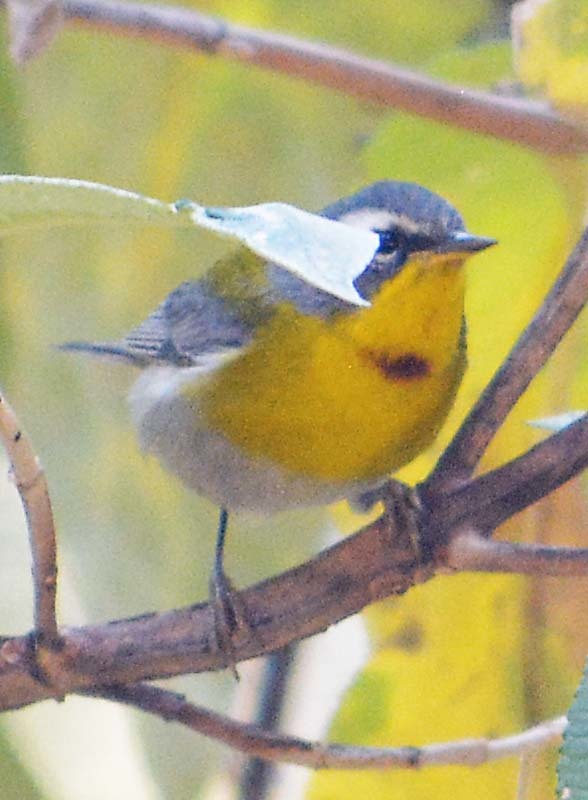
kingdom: Animalia
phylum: Chordata
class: Aves
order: Passeriformes
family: Parulidae
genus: Oreothlypis
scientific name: Oreothlypis superciliosa
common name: Crescent-chested warbler
